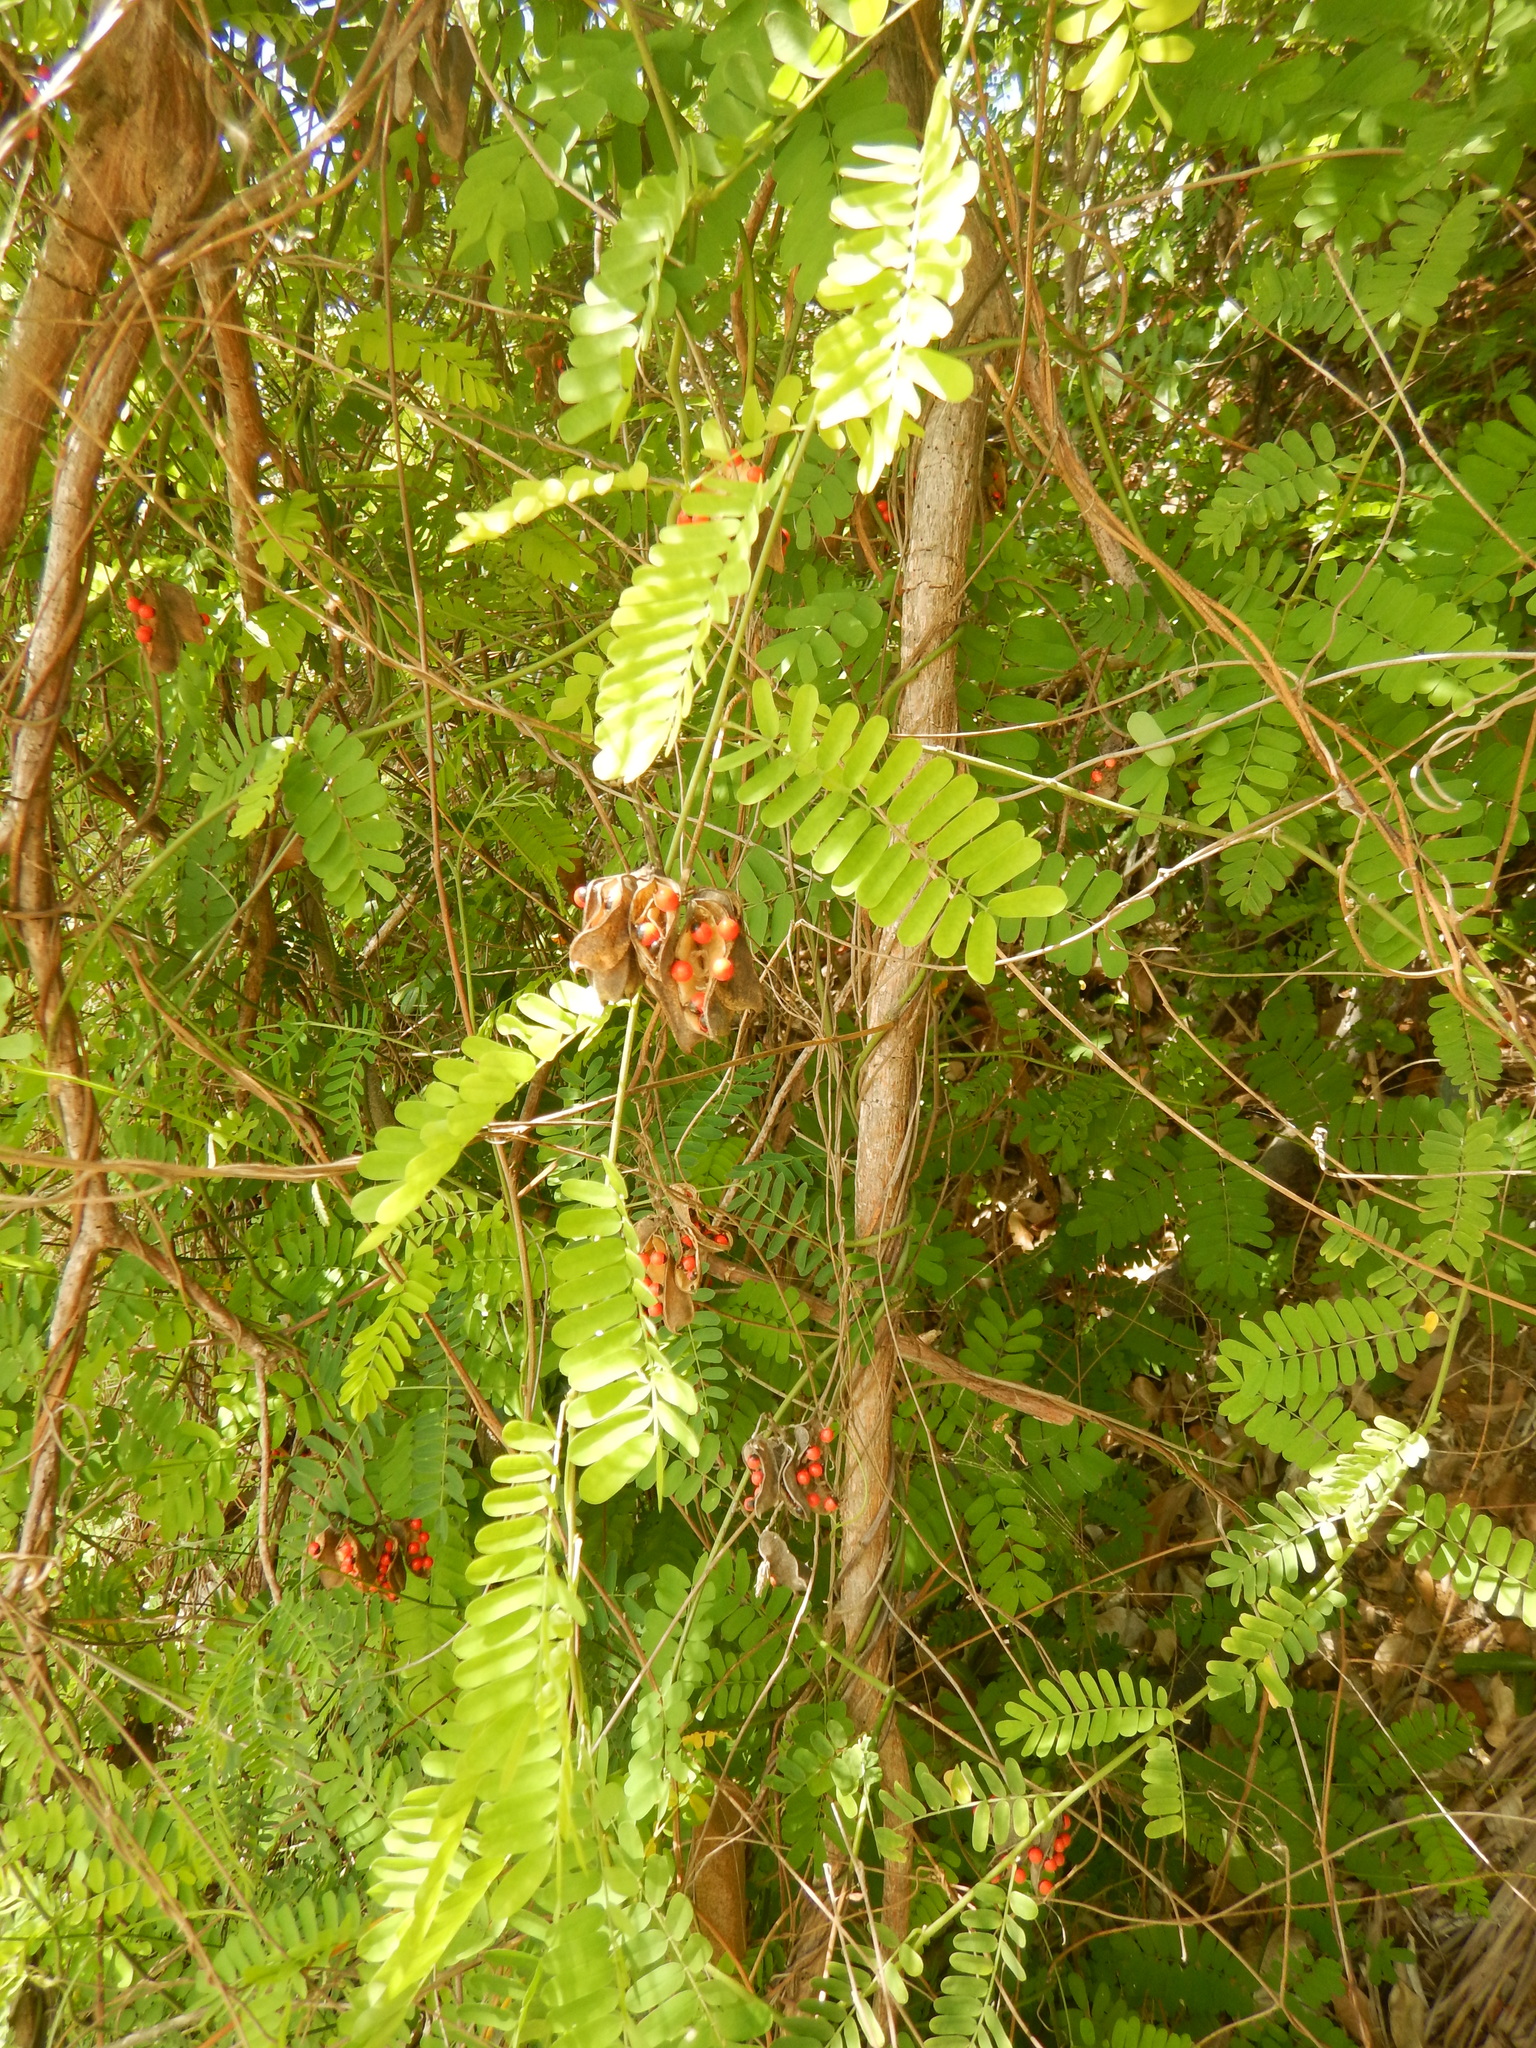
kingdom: Plantae
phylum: Tracheophyta
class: Magnoliopsida
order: Fabales
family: Fabaceae
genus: Abrus
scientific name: Abrus precatorius
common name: Rosarypea
